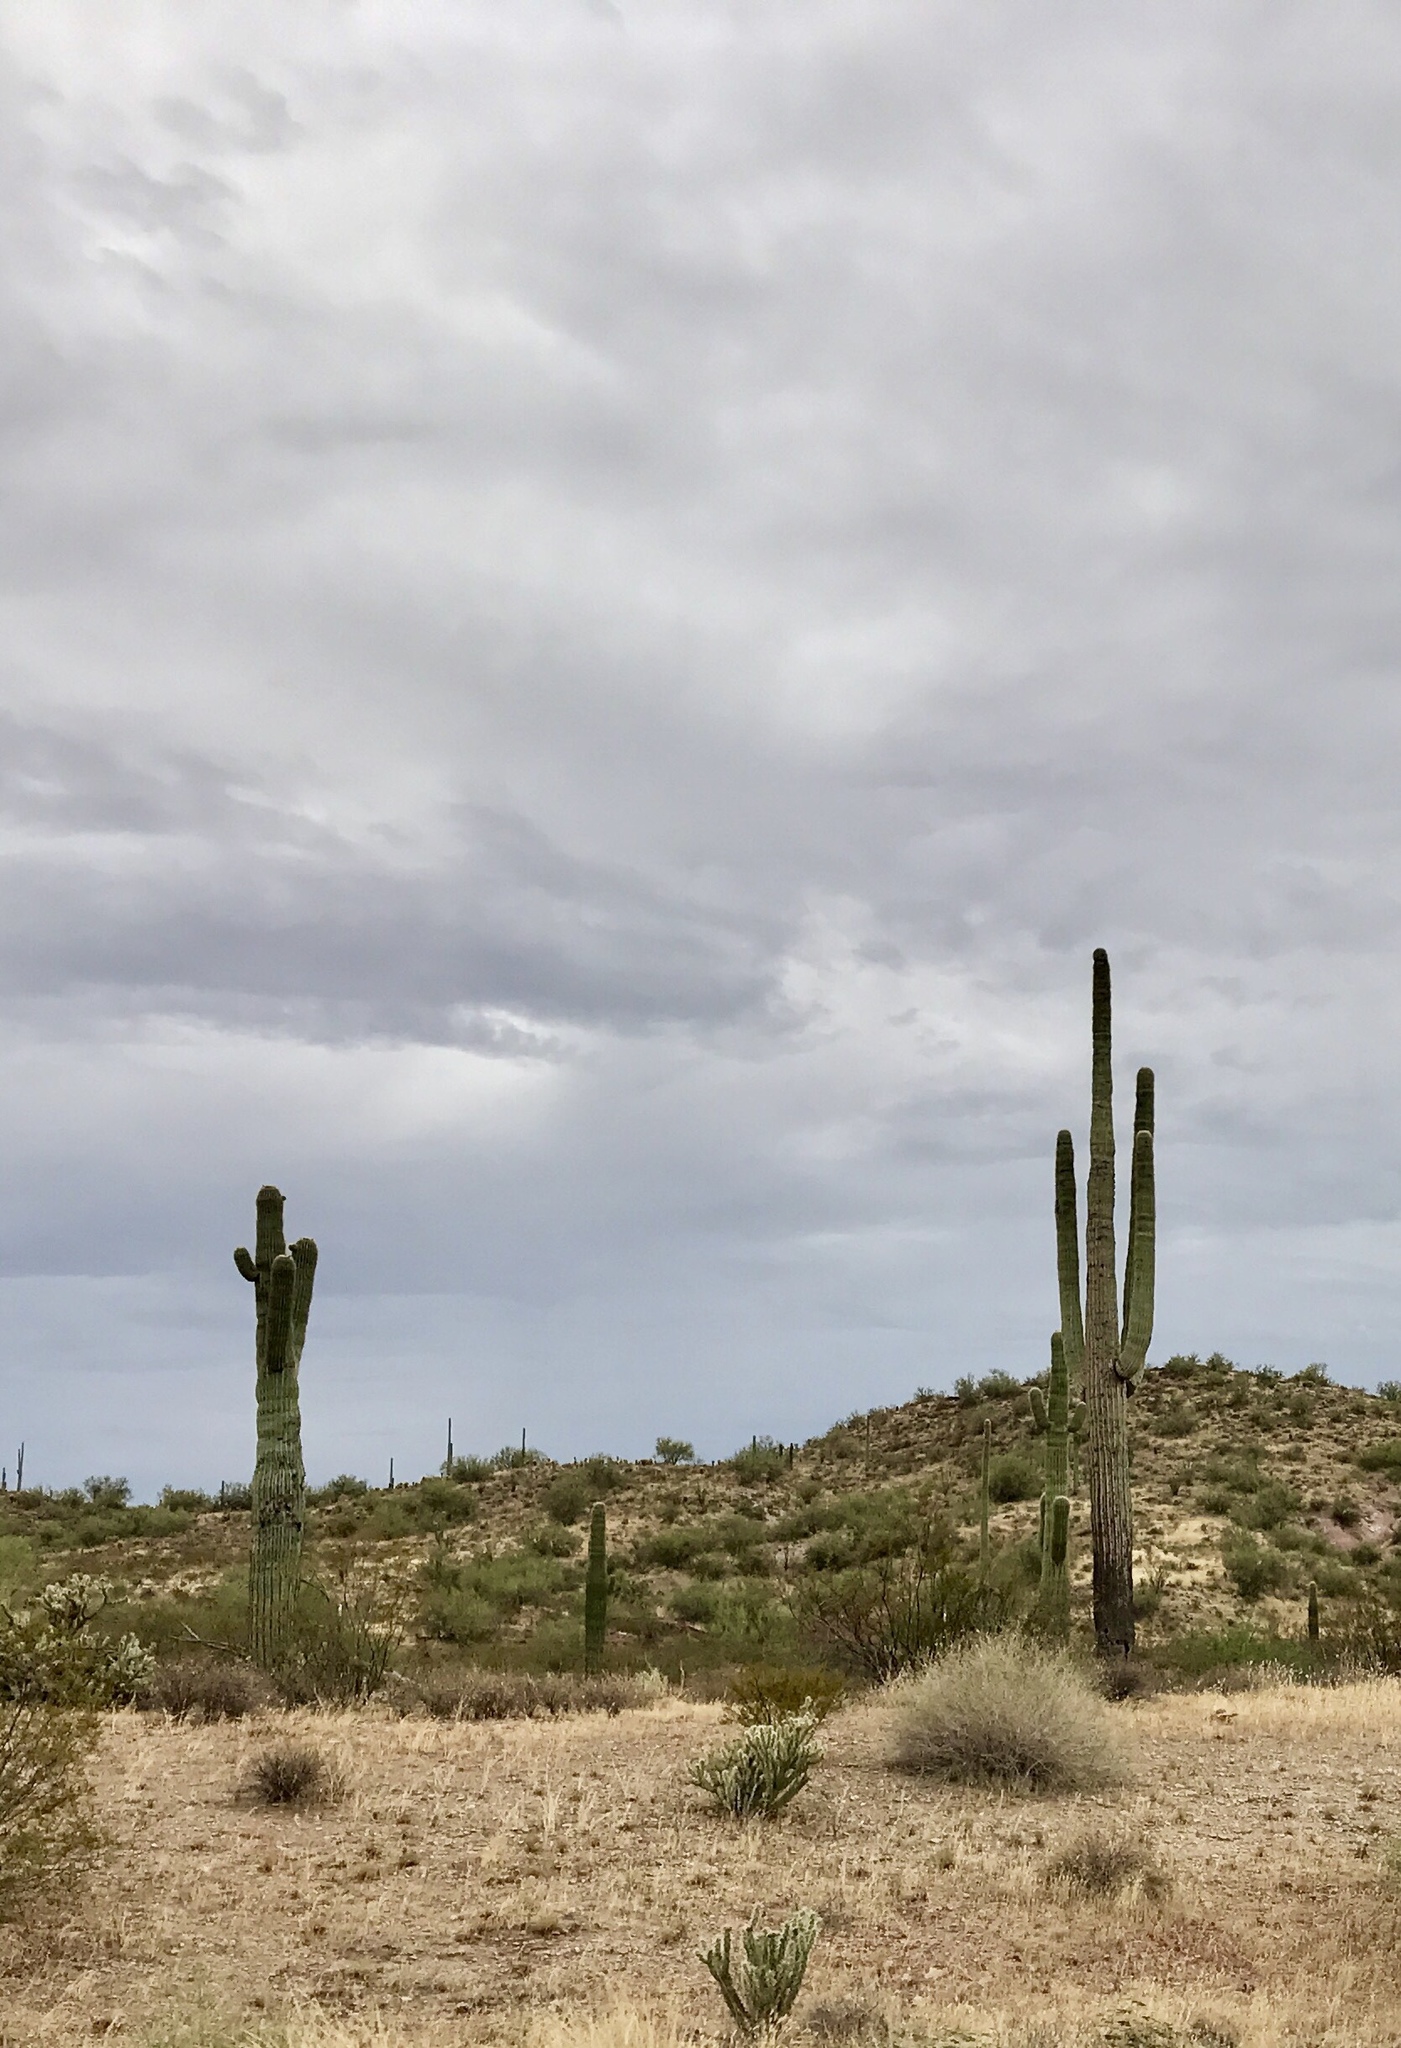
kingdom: Plantae
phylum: Tracheophyta
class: Magnoliopsida
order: Caryophyllales
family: Cactaceae
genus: Carnegiea
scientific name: Carnegiea gigantea
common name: Saguaro
